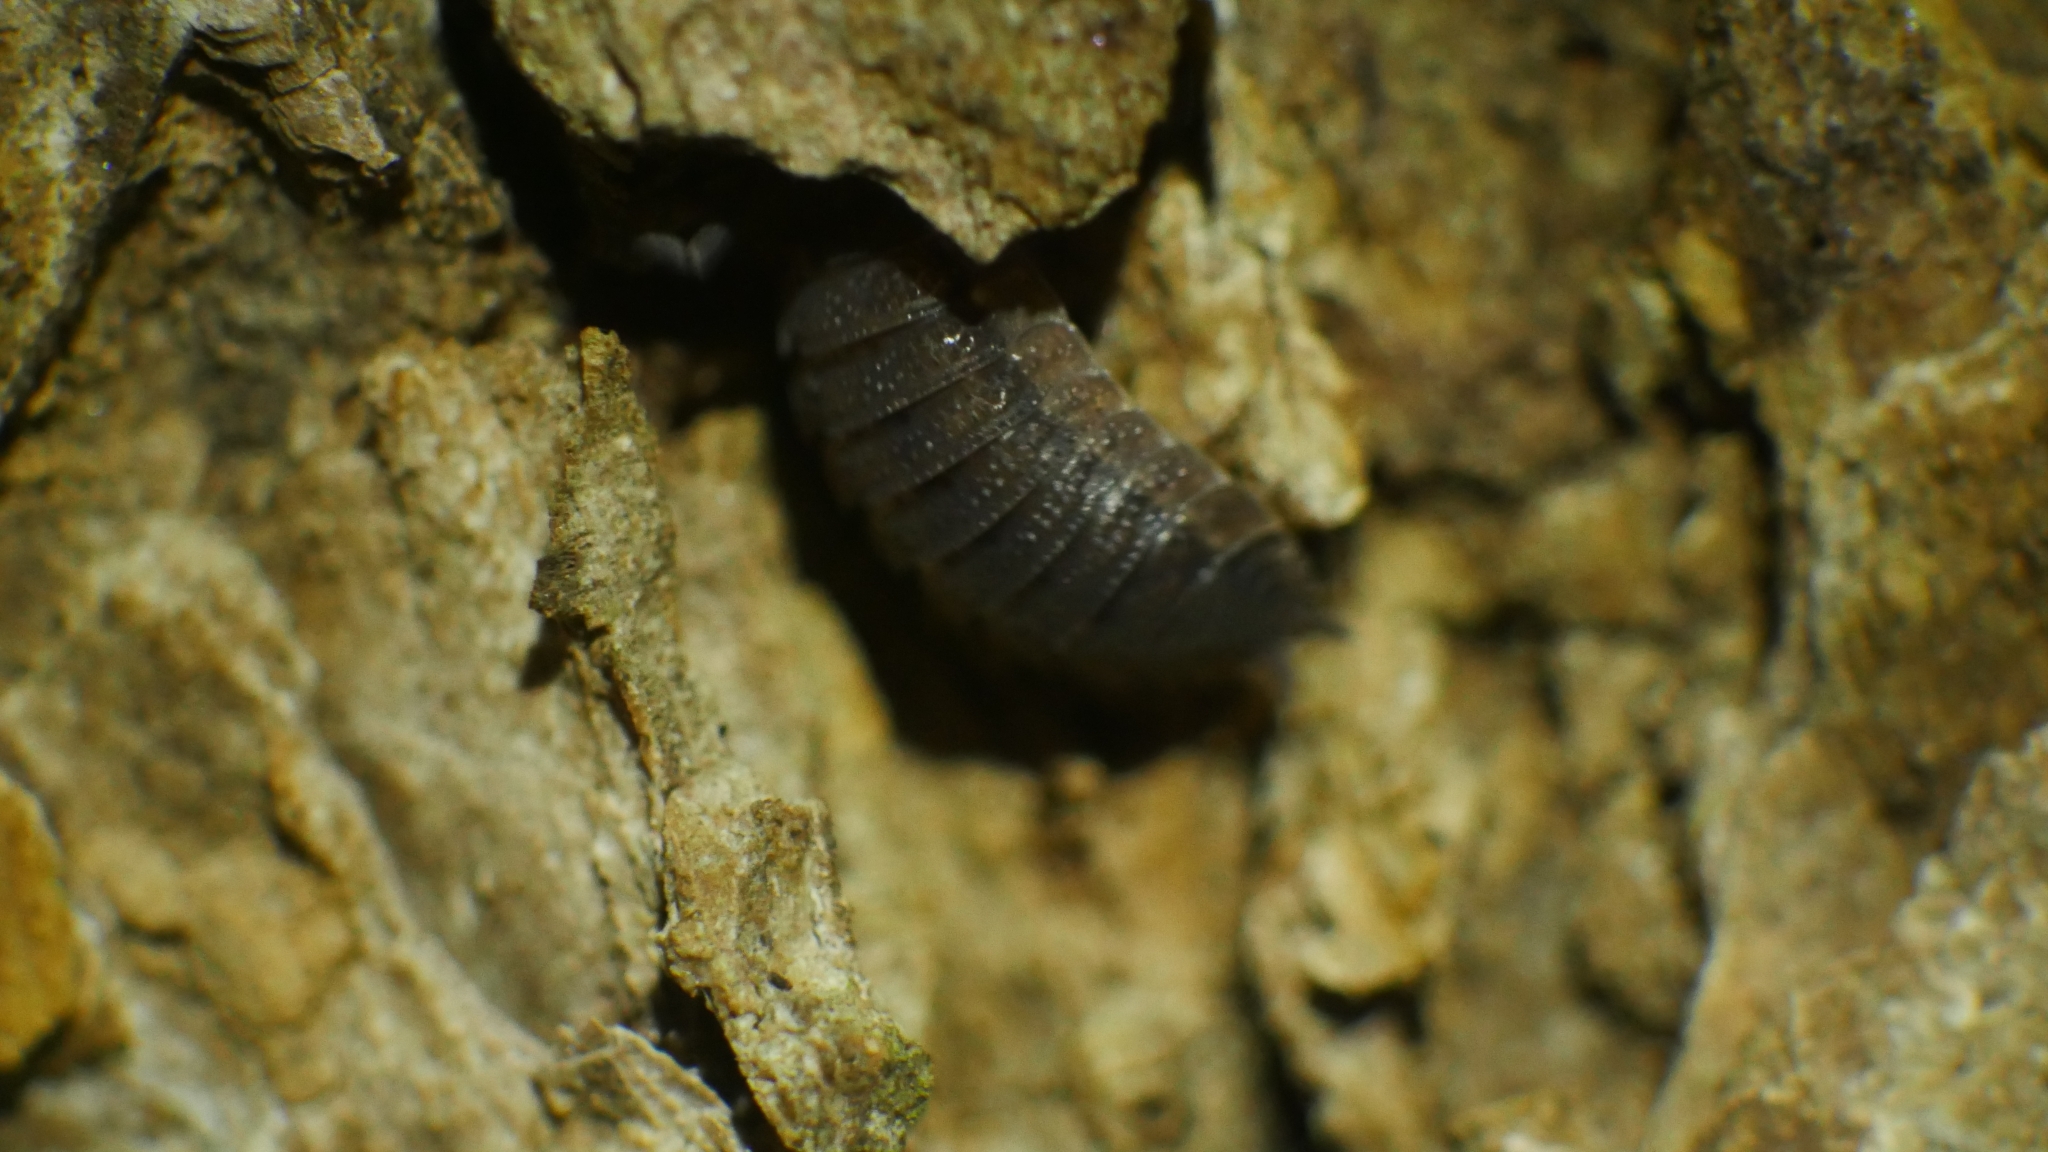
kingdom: Animalia
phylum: Arthropoda
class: Malacostraca
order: Isopoda
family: Porcellionidae
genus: Porcellio
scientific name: Porcellio scaber
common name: Common rough woodlouse
